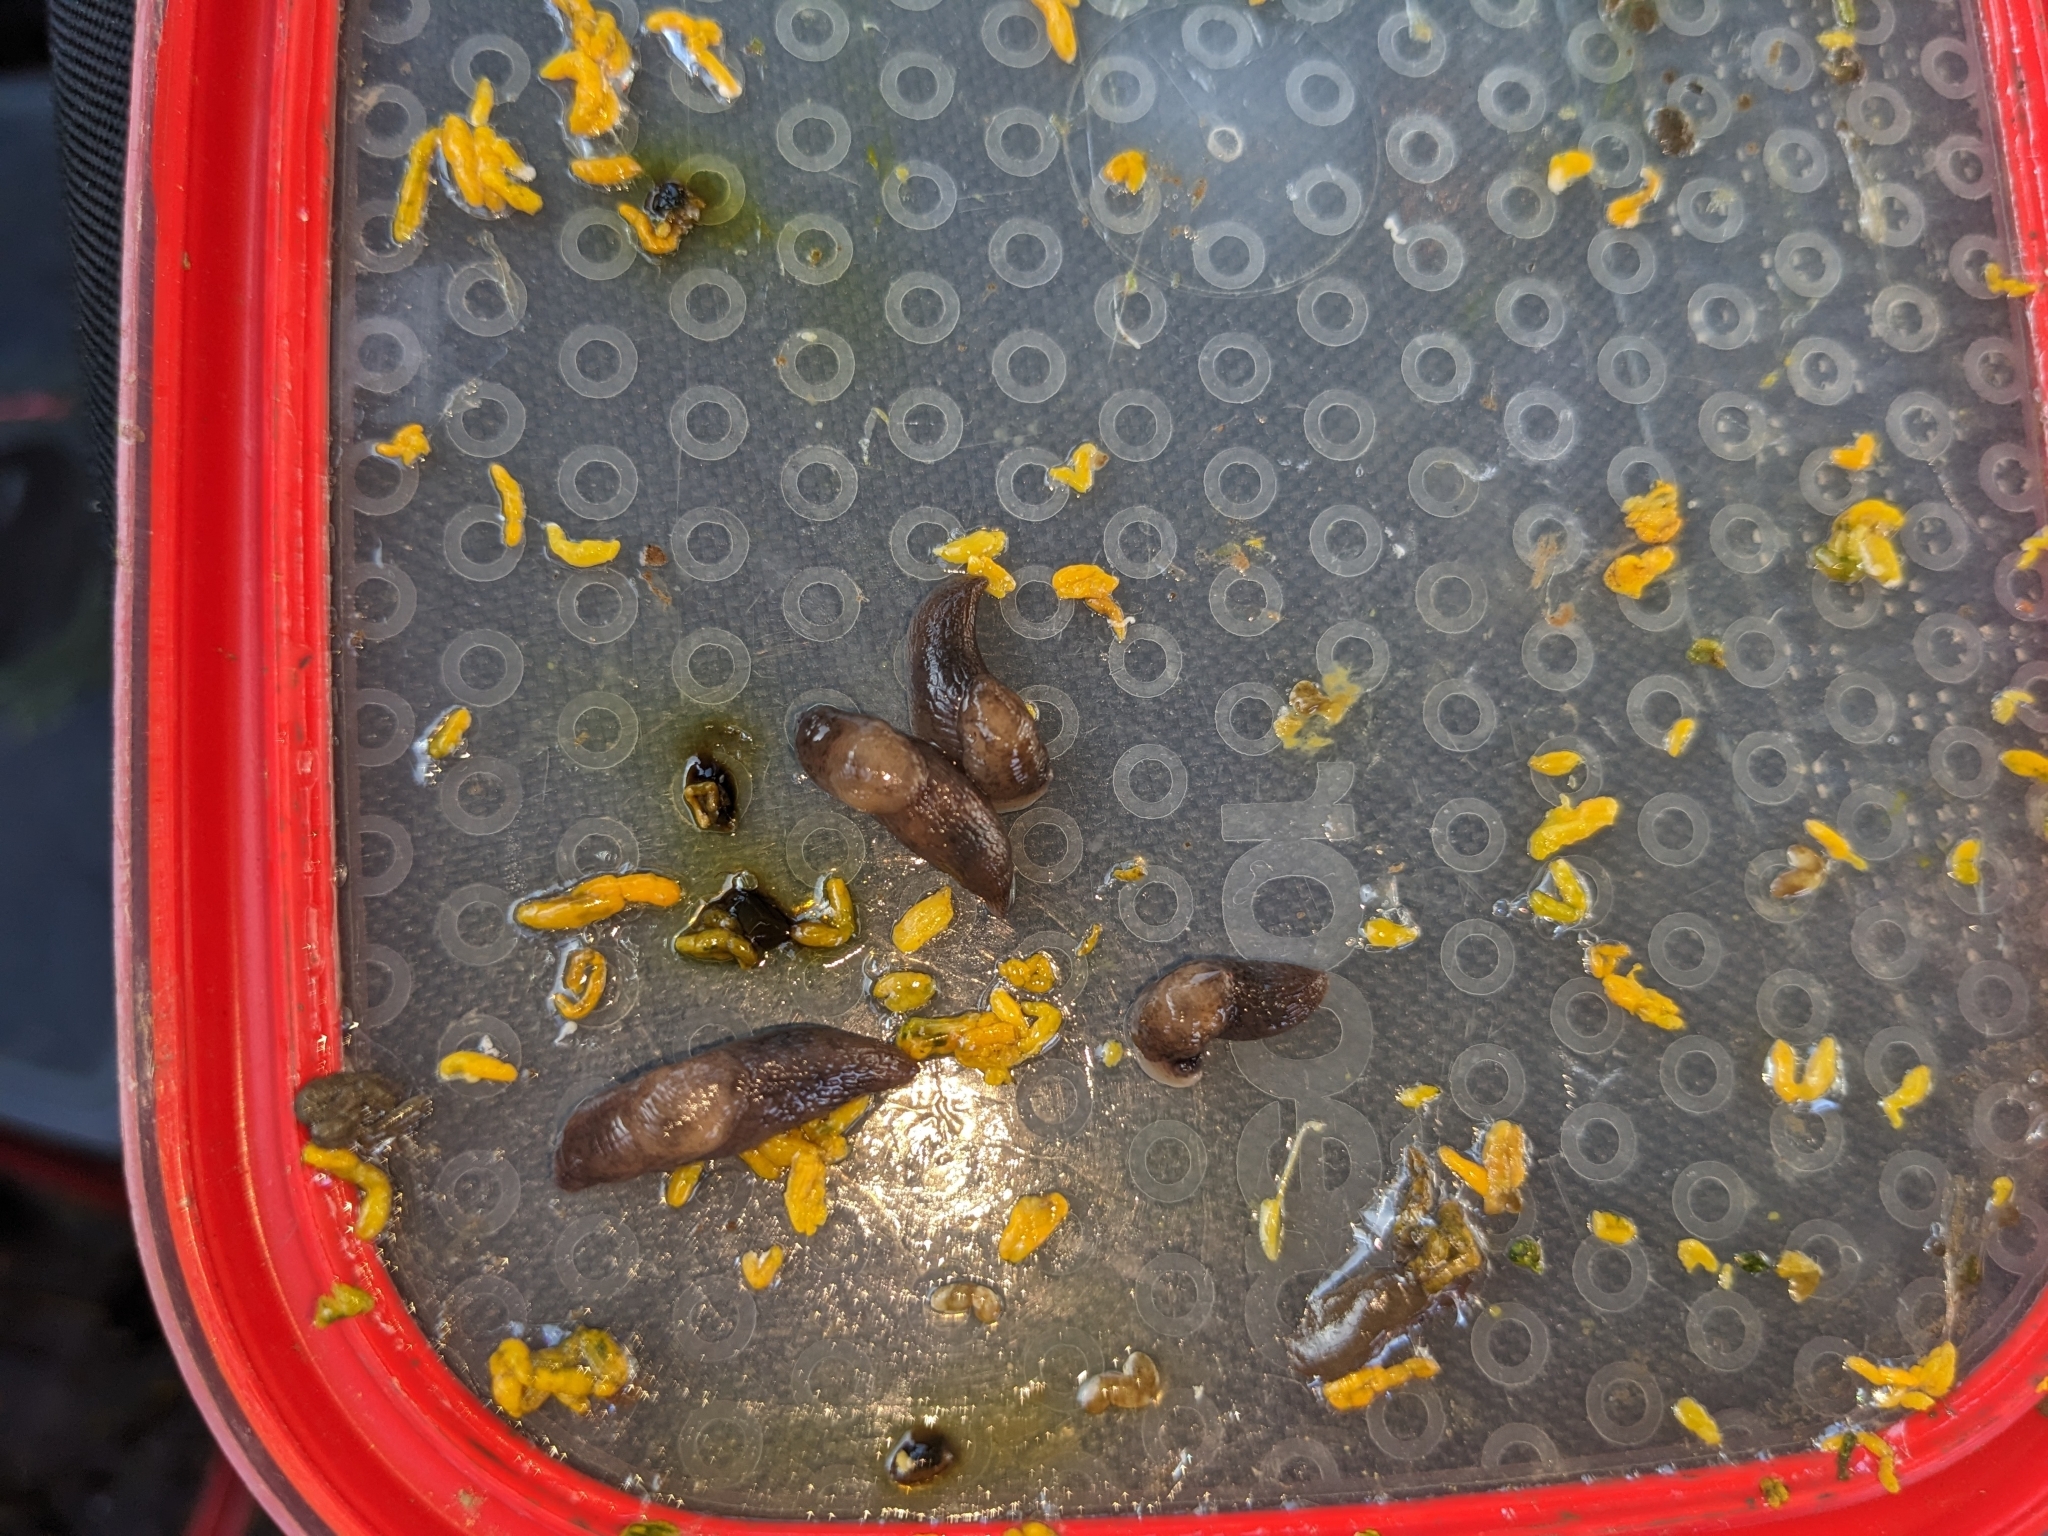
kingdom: Animalia
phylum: Mollusca
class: Gastropoda
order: Stylommatophora
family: Agriolimacidae
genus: Deroceras
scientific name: Deroceras invadens
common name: Caruana's slug
